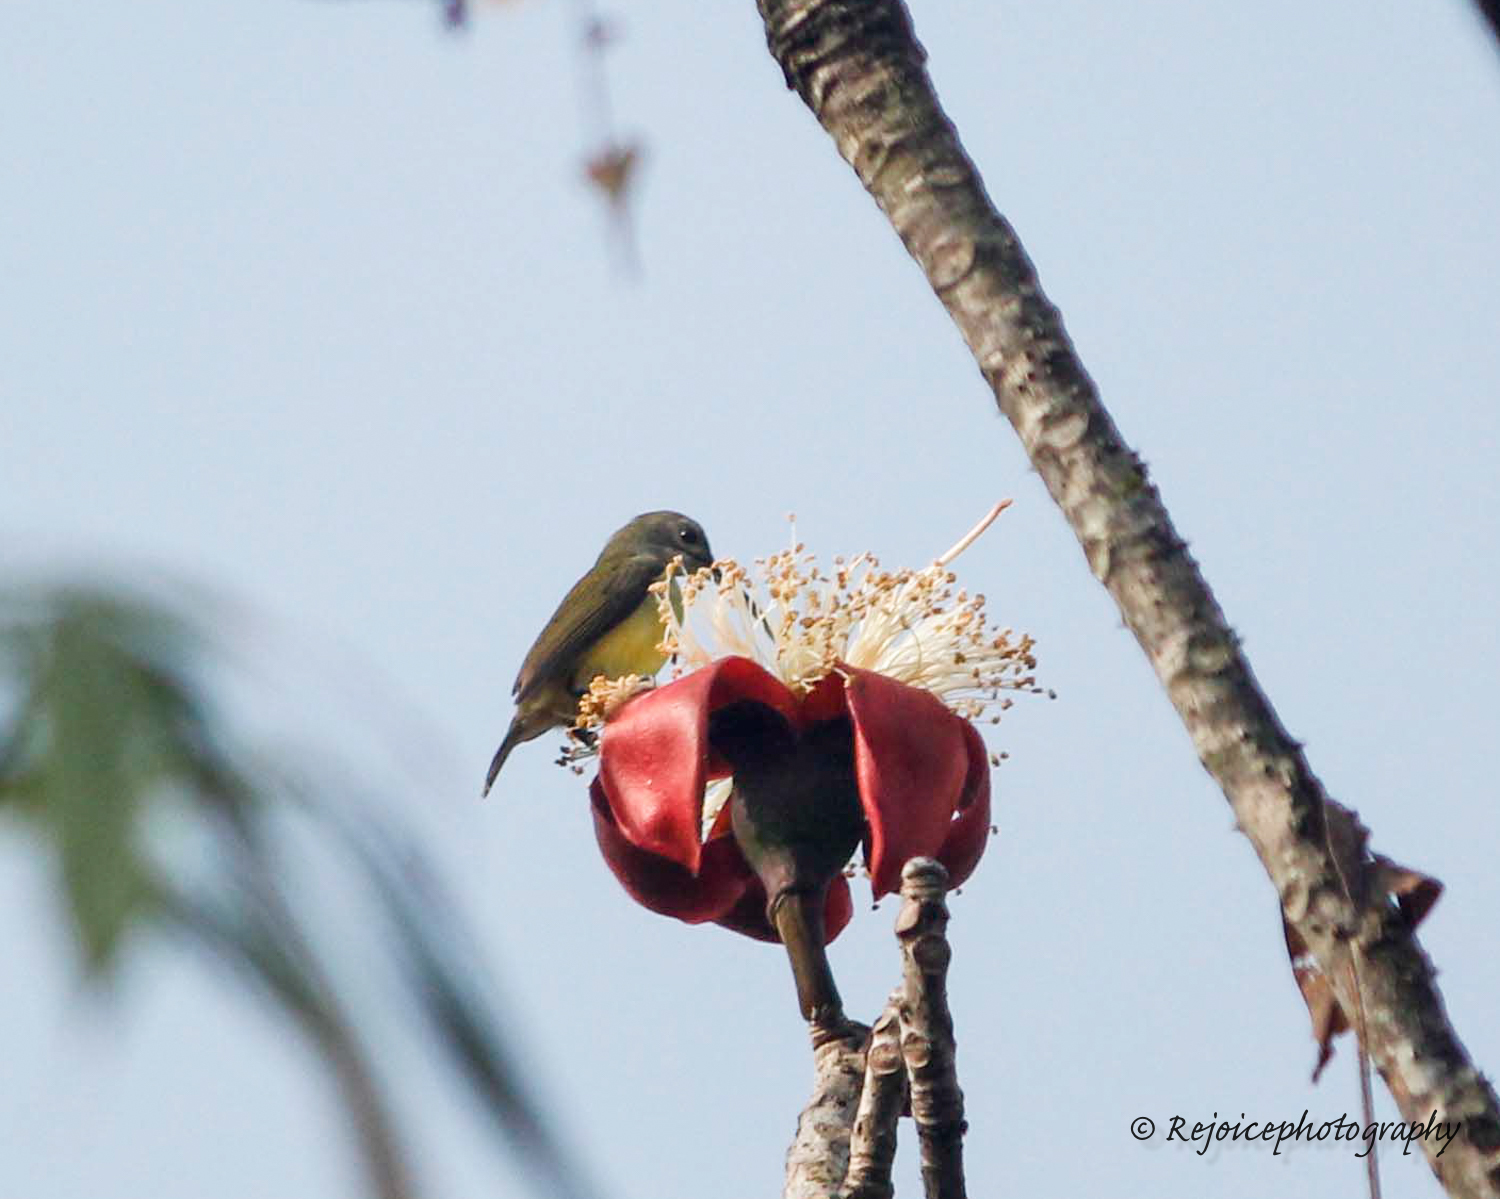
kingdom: Animalia
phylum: Chordata
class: Aves
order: Passeriformes
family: Nectariniidae
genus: Arachnothera
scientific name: Arachnothera longirostra
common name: Little spiderhunter
